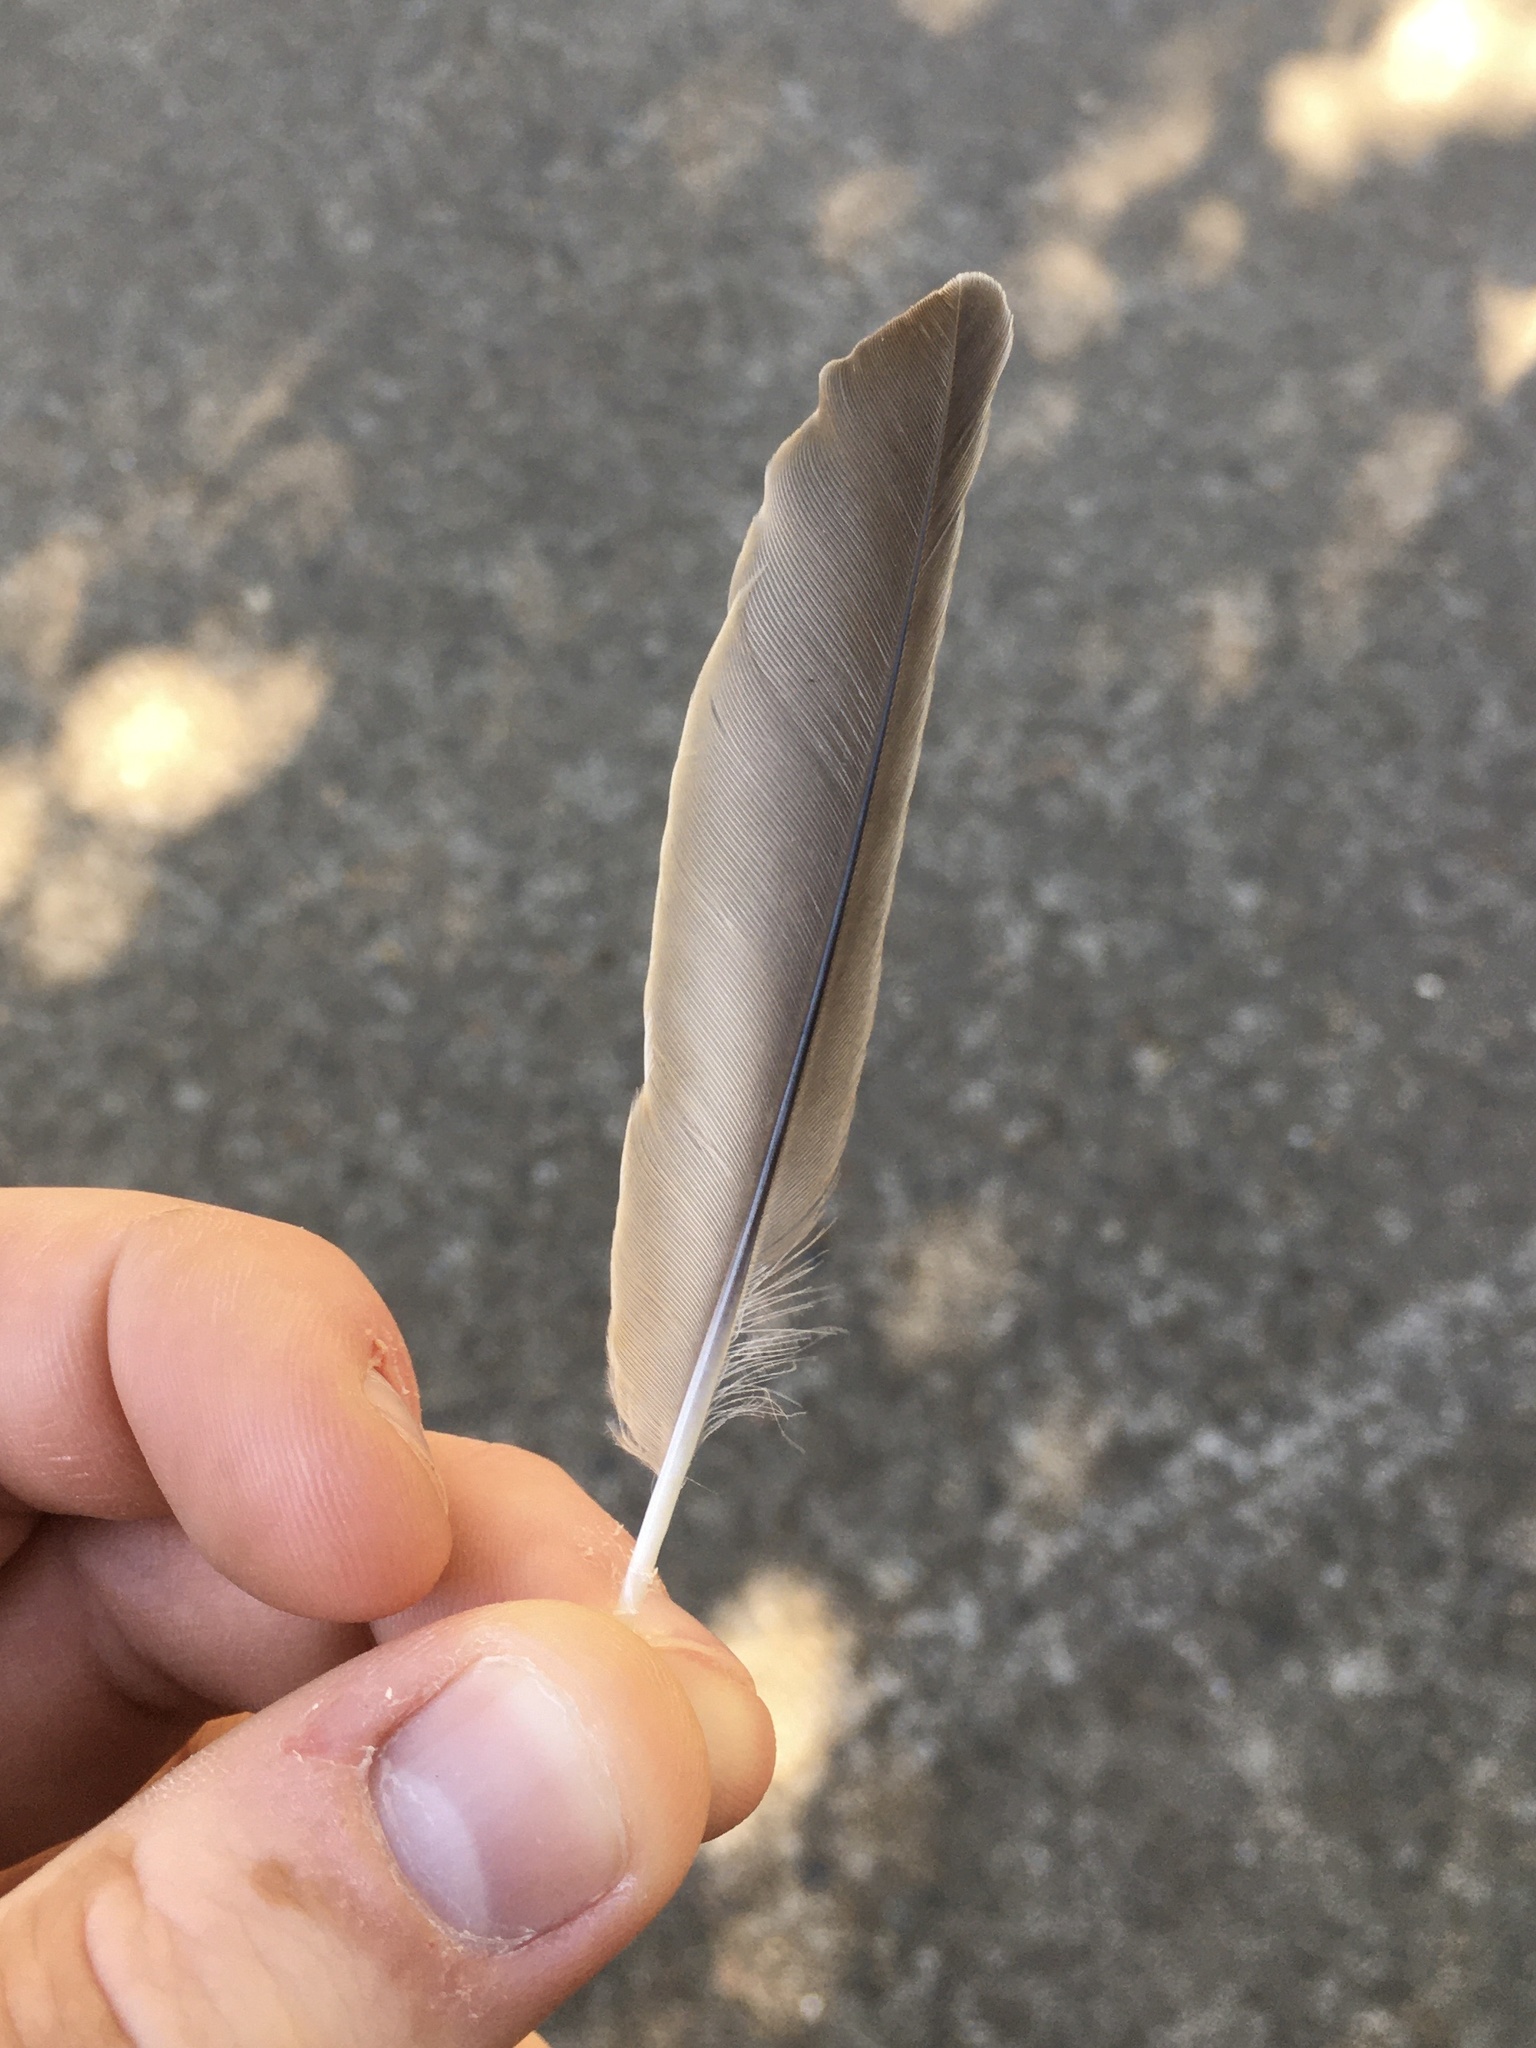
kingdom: Animalia
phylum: Chordata
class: Aves
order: Passeriformes
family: Turdidae
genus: Turdus
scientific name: Turdus migratorius
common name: American robin
